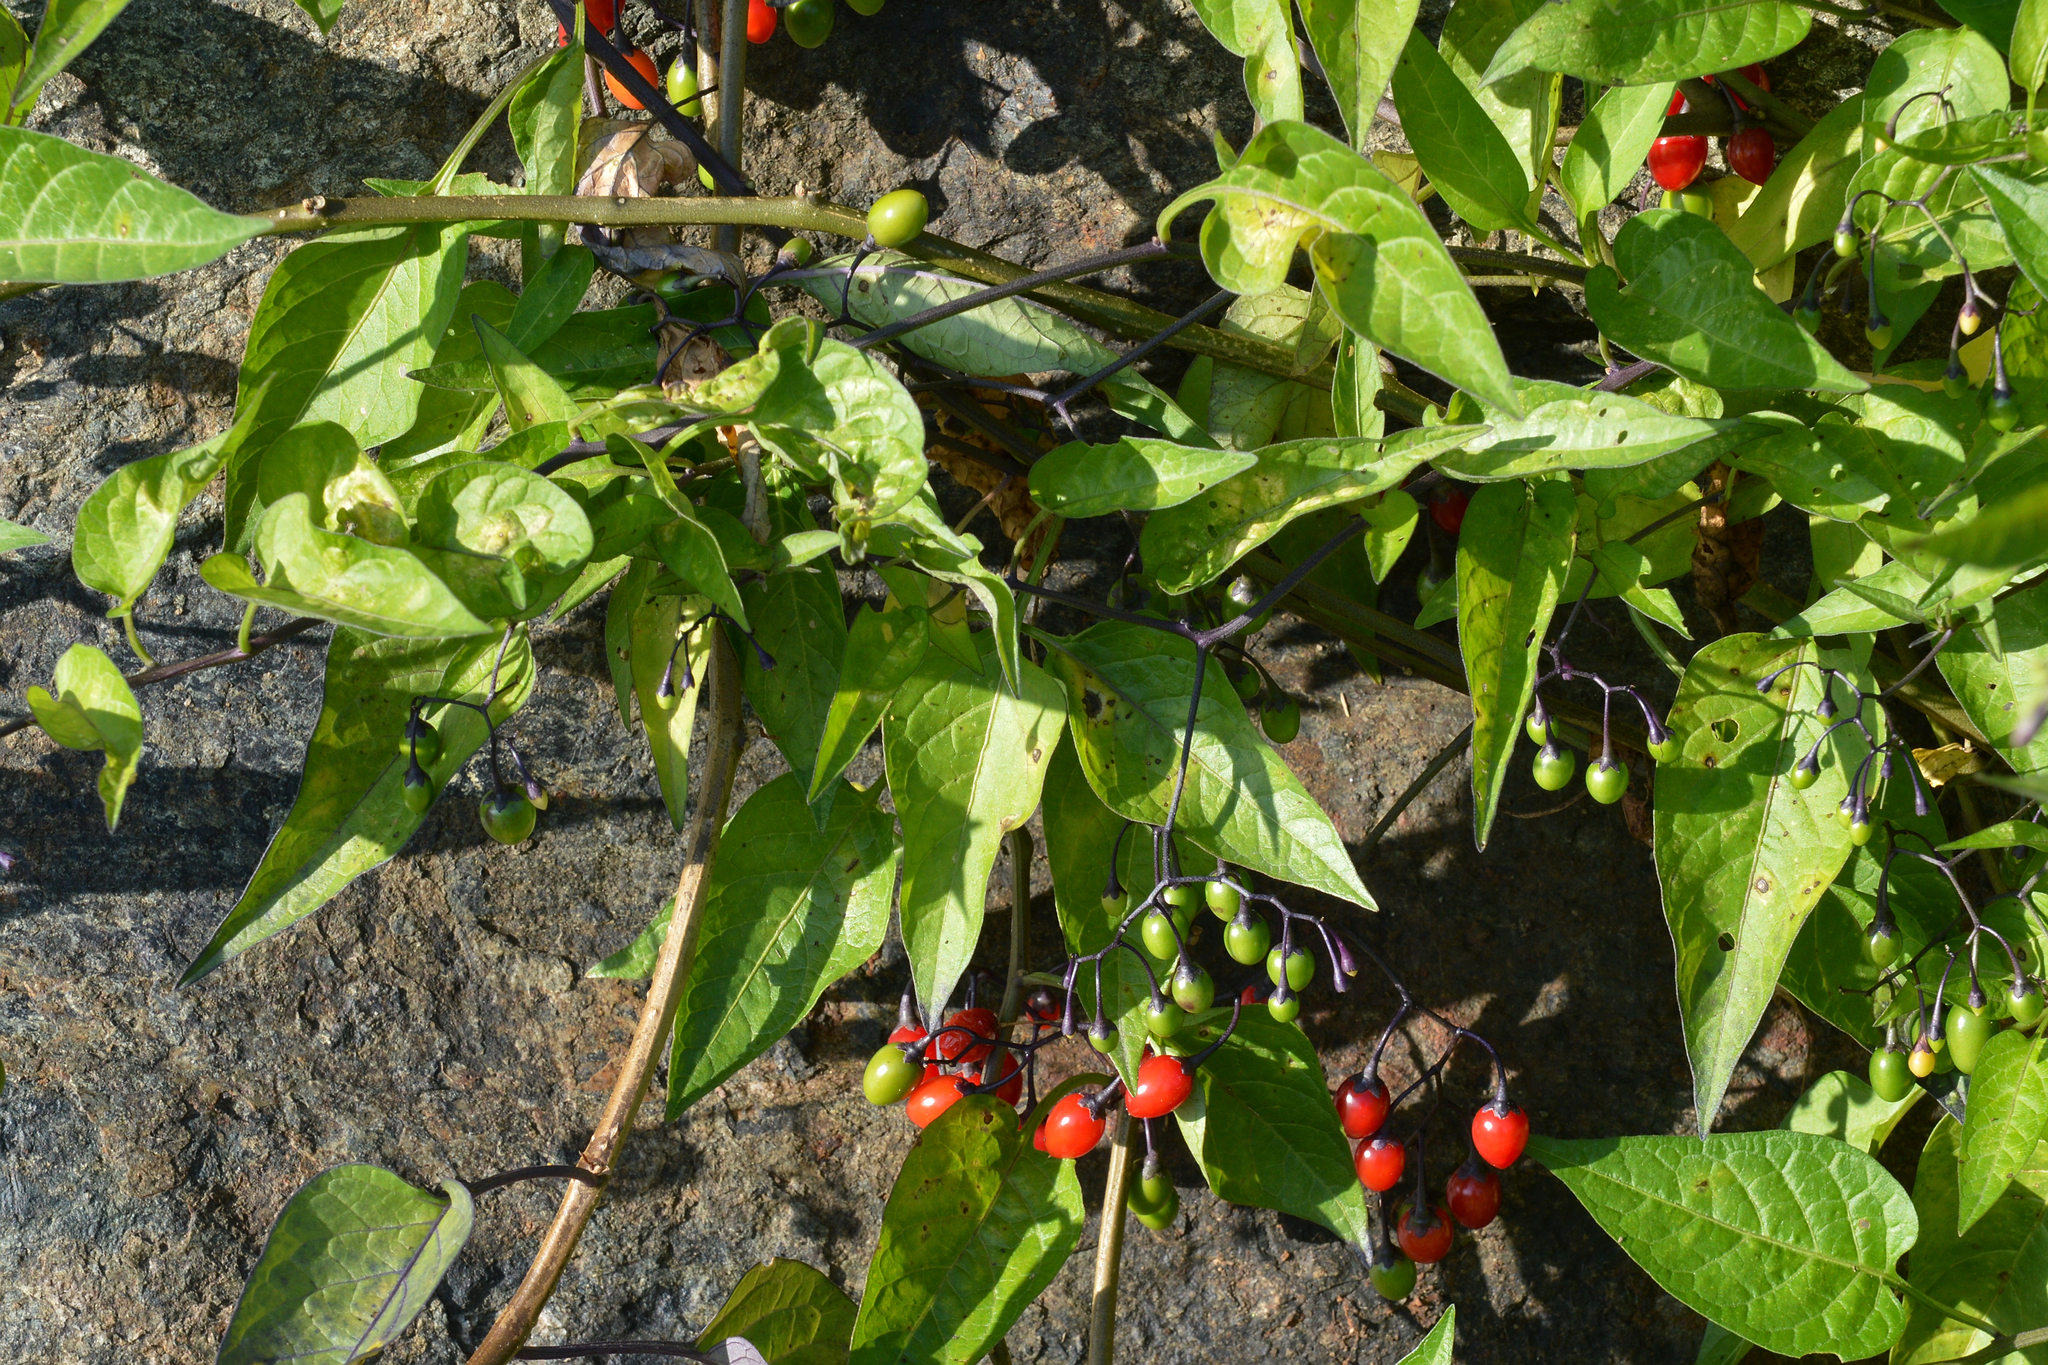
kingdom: Plantae
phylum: Tracheophyta
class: Magnoliopsida
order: Solanales
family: Solanaceae
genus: Solanum
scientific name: Solanum dulcamara
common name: Climbing nightshade
